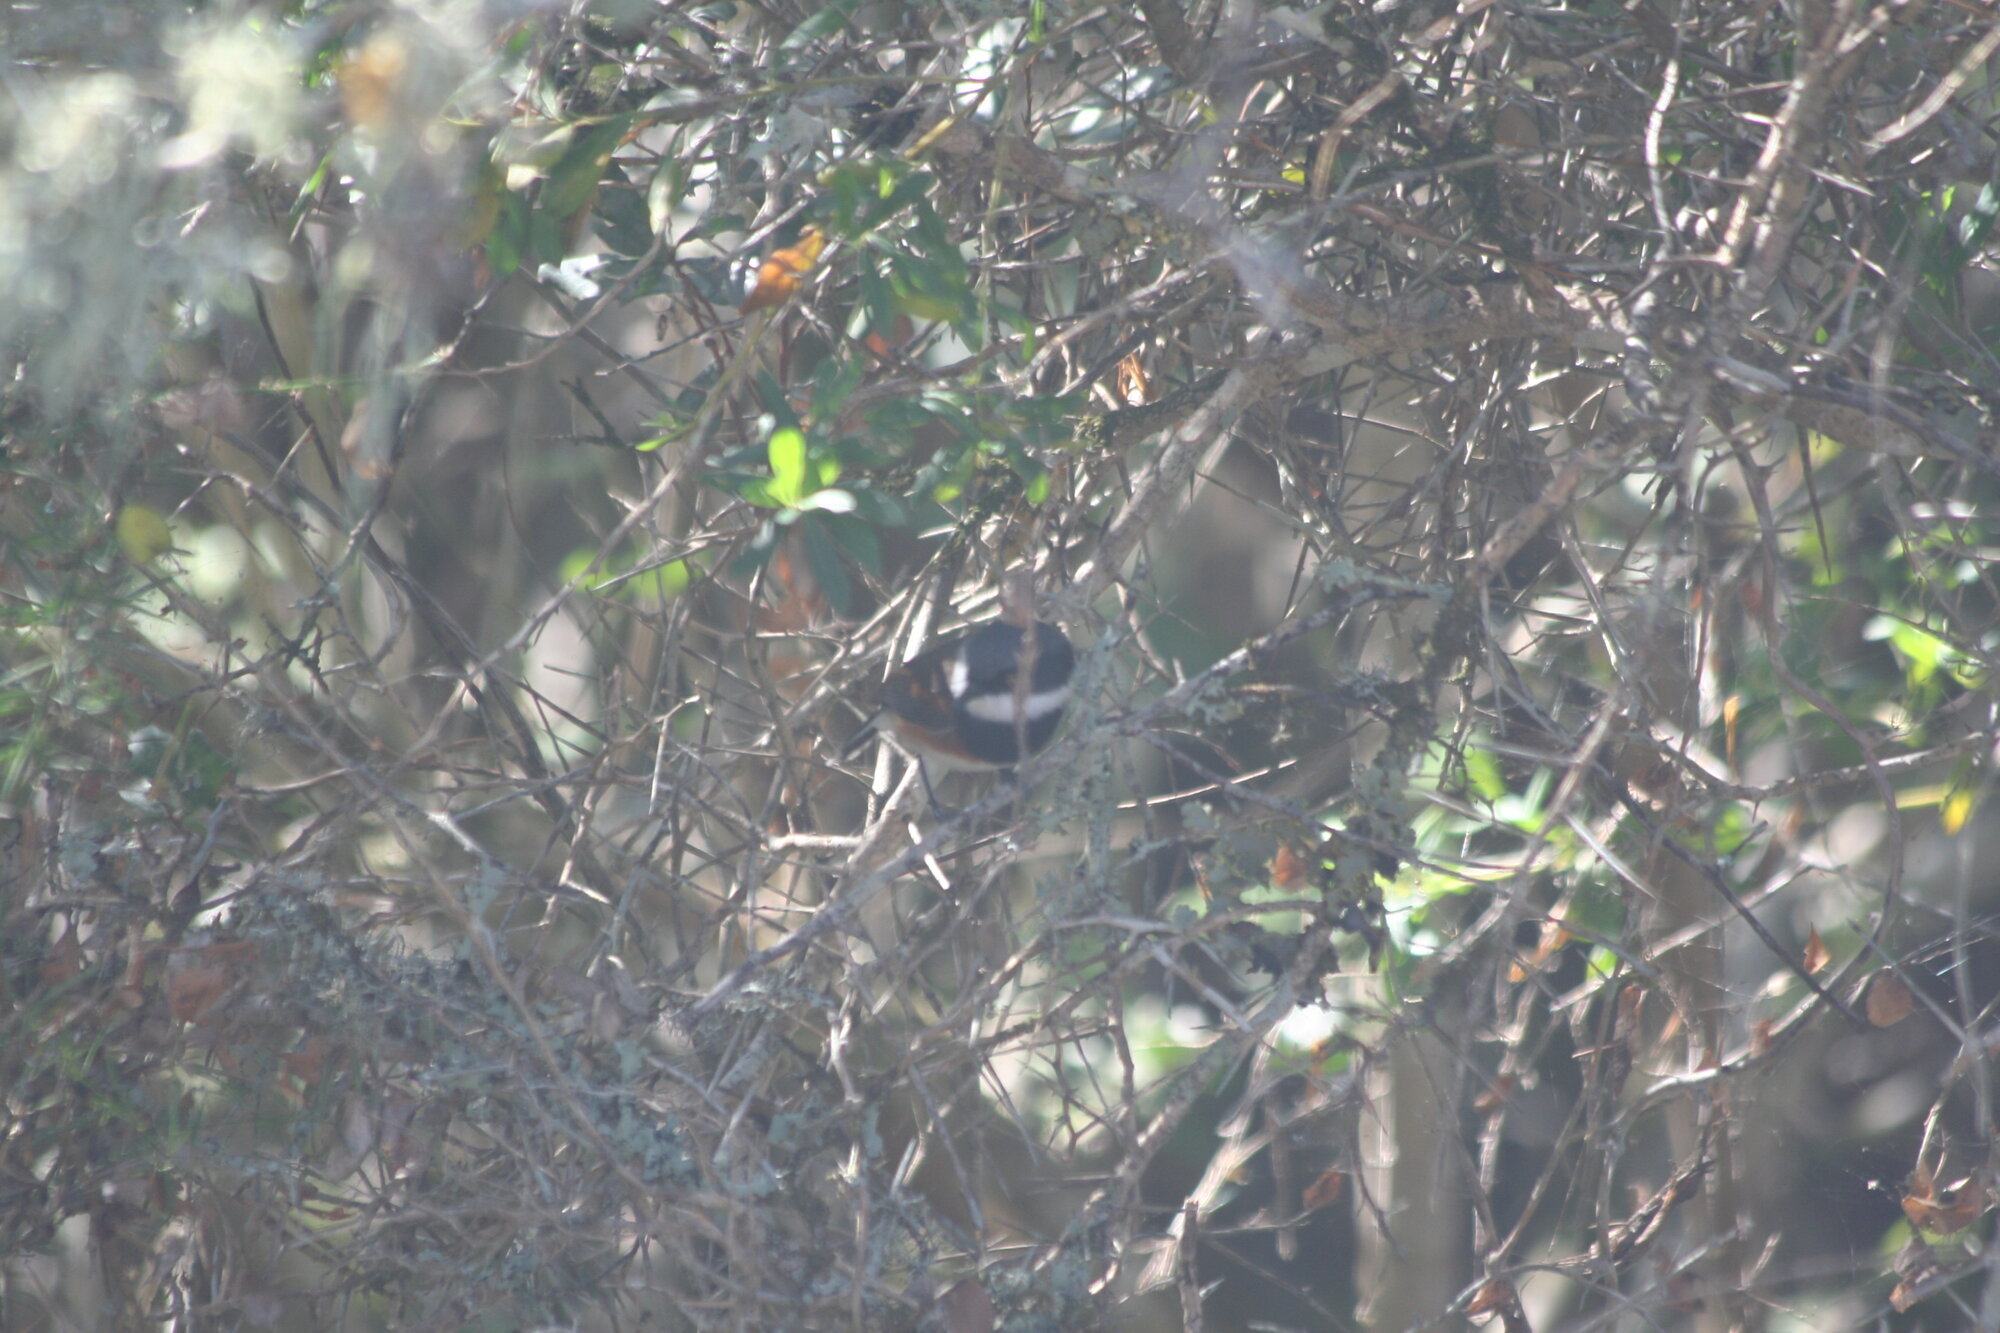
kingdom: Animalia
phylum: Chordata
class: Aves
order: Passeriformes
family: Platysteiridae
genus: Batis
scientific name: Batis capensis
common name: Cape batis
